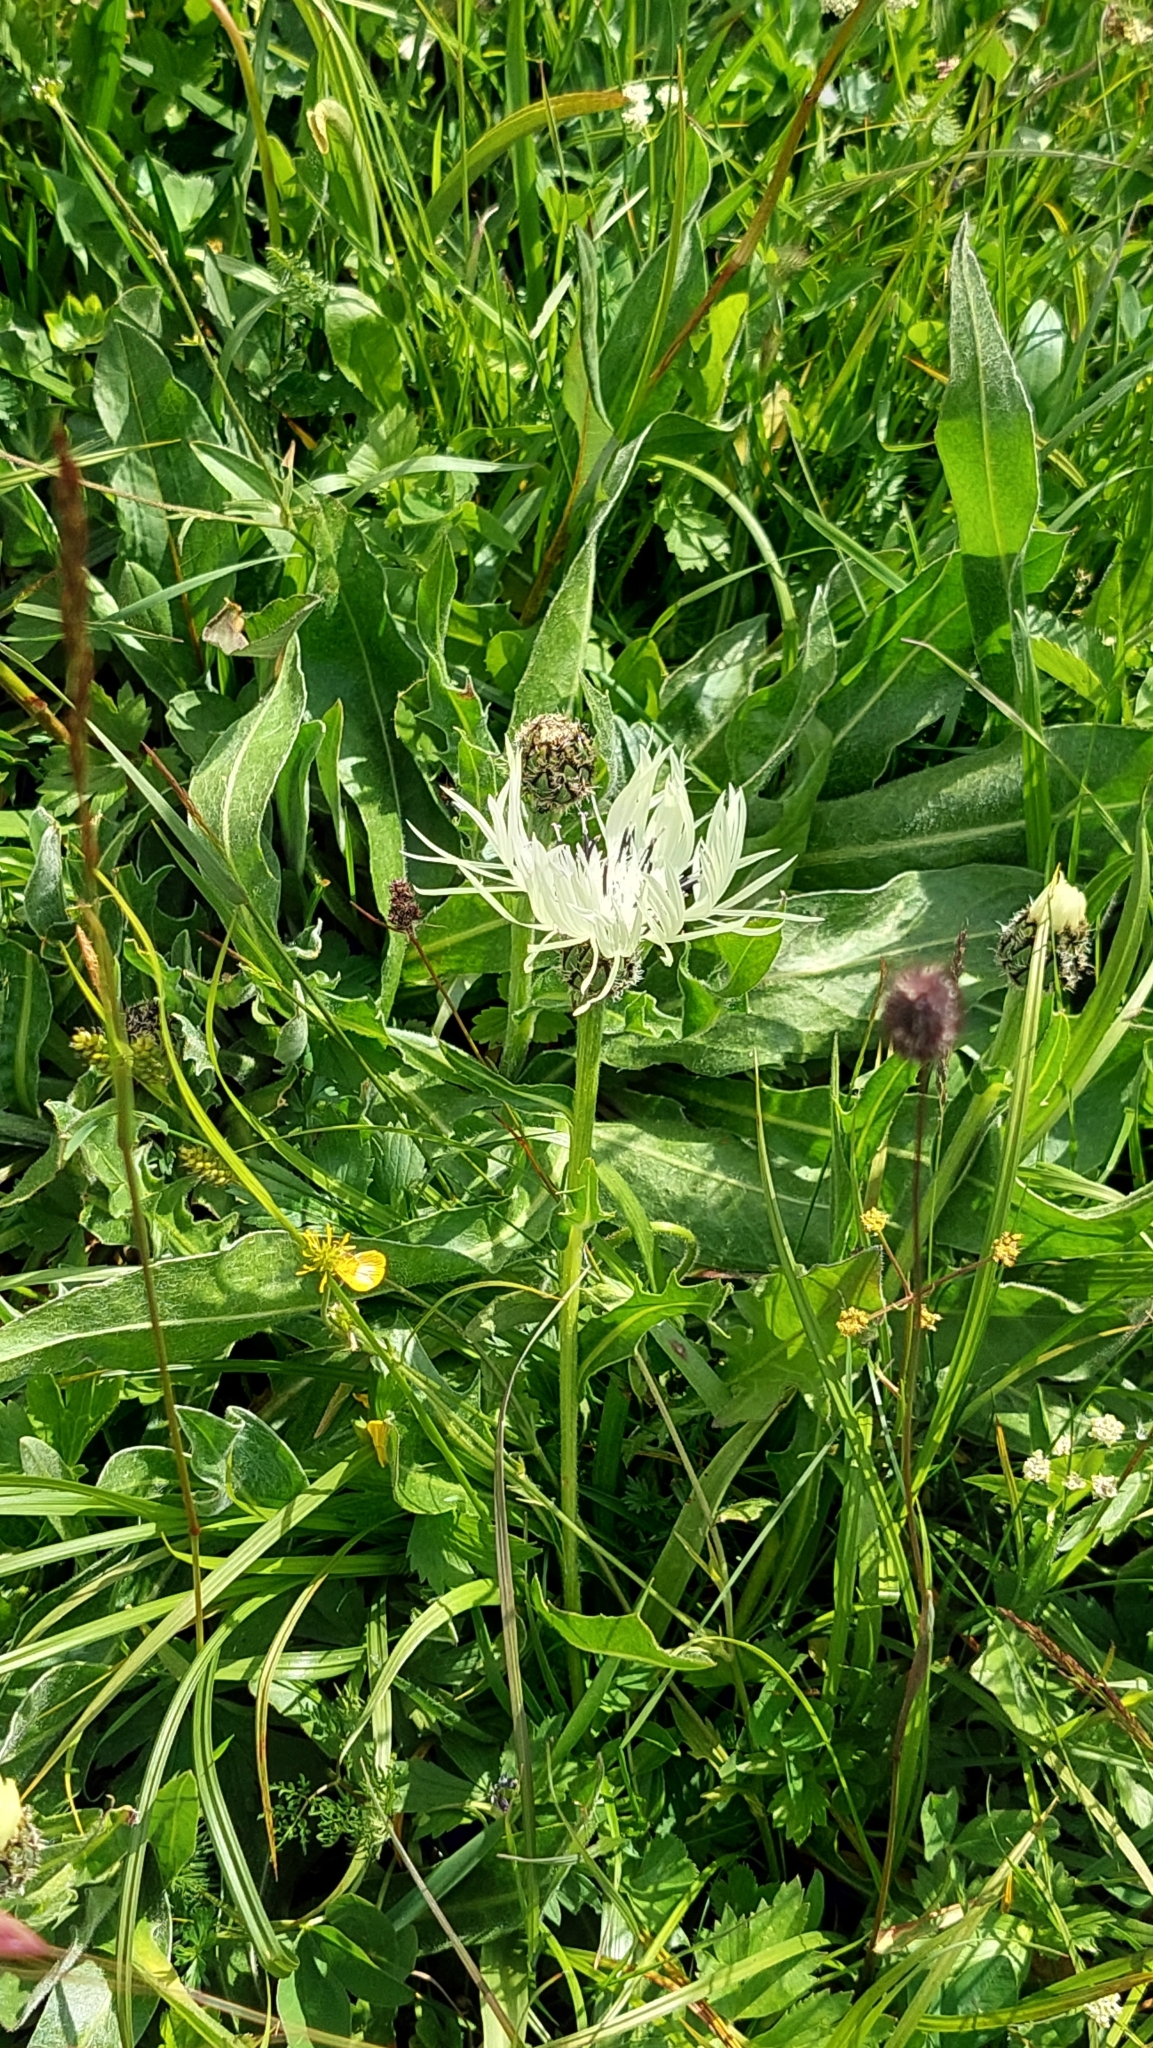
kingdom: Plantae
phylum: Tracheophyta
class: Magnoliopsida
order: Asterales
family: Asteraceae
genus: Centaurea
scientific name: Centaurea cheiranthifolia
